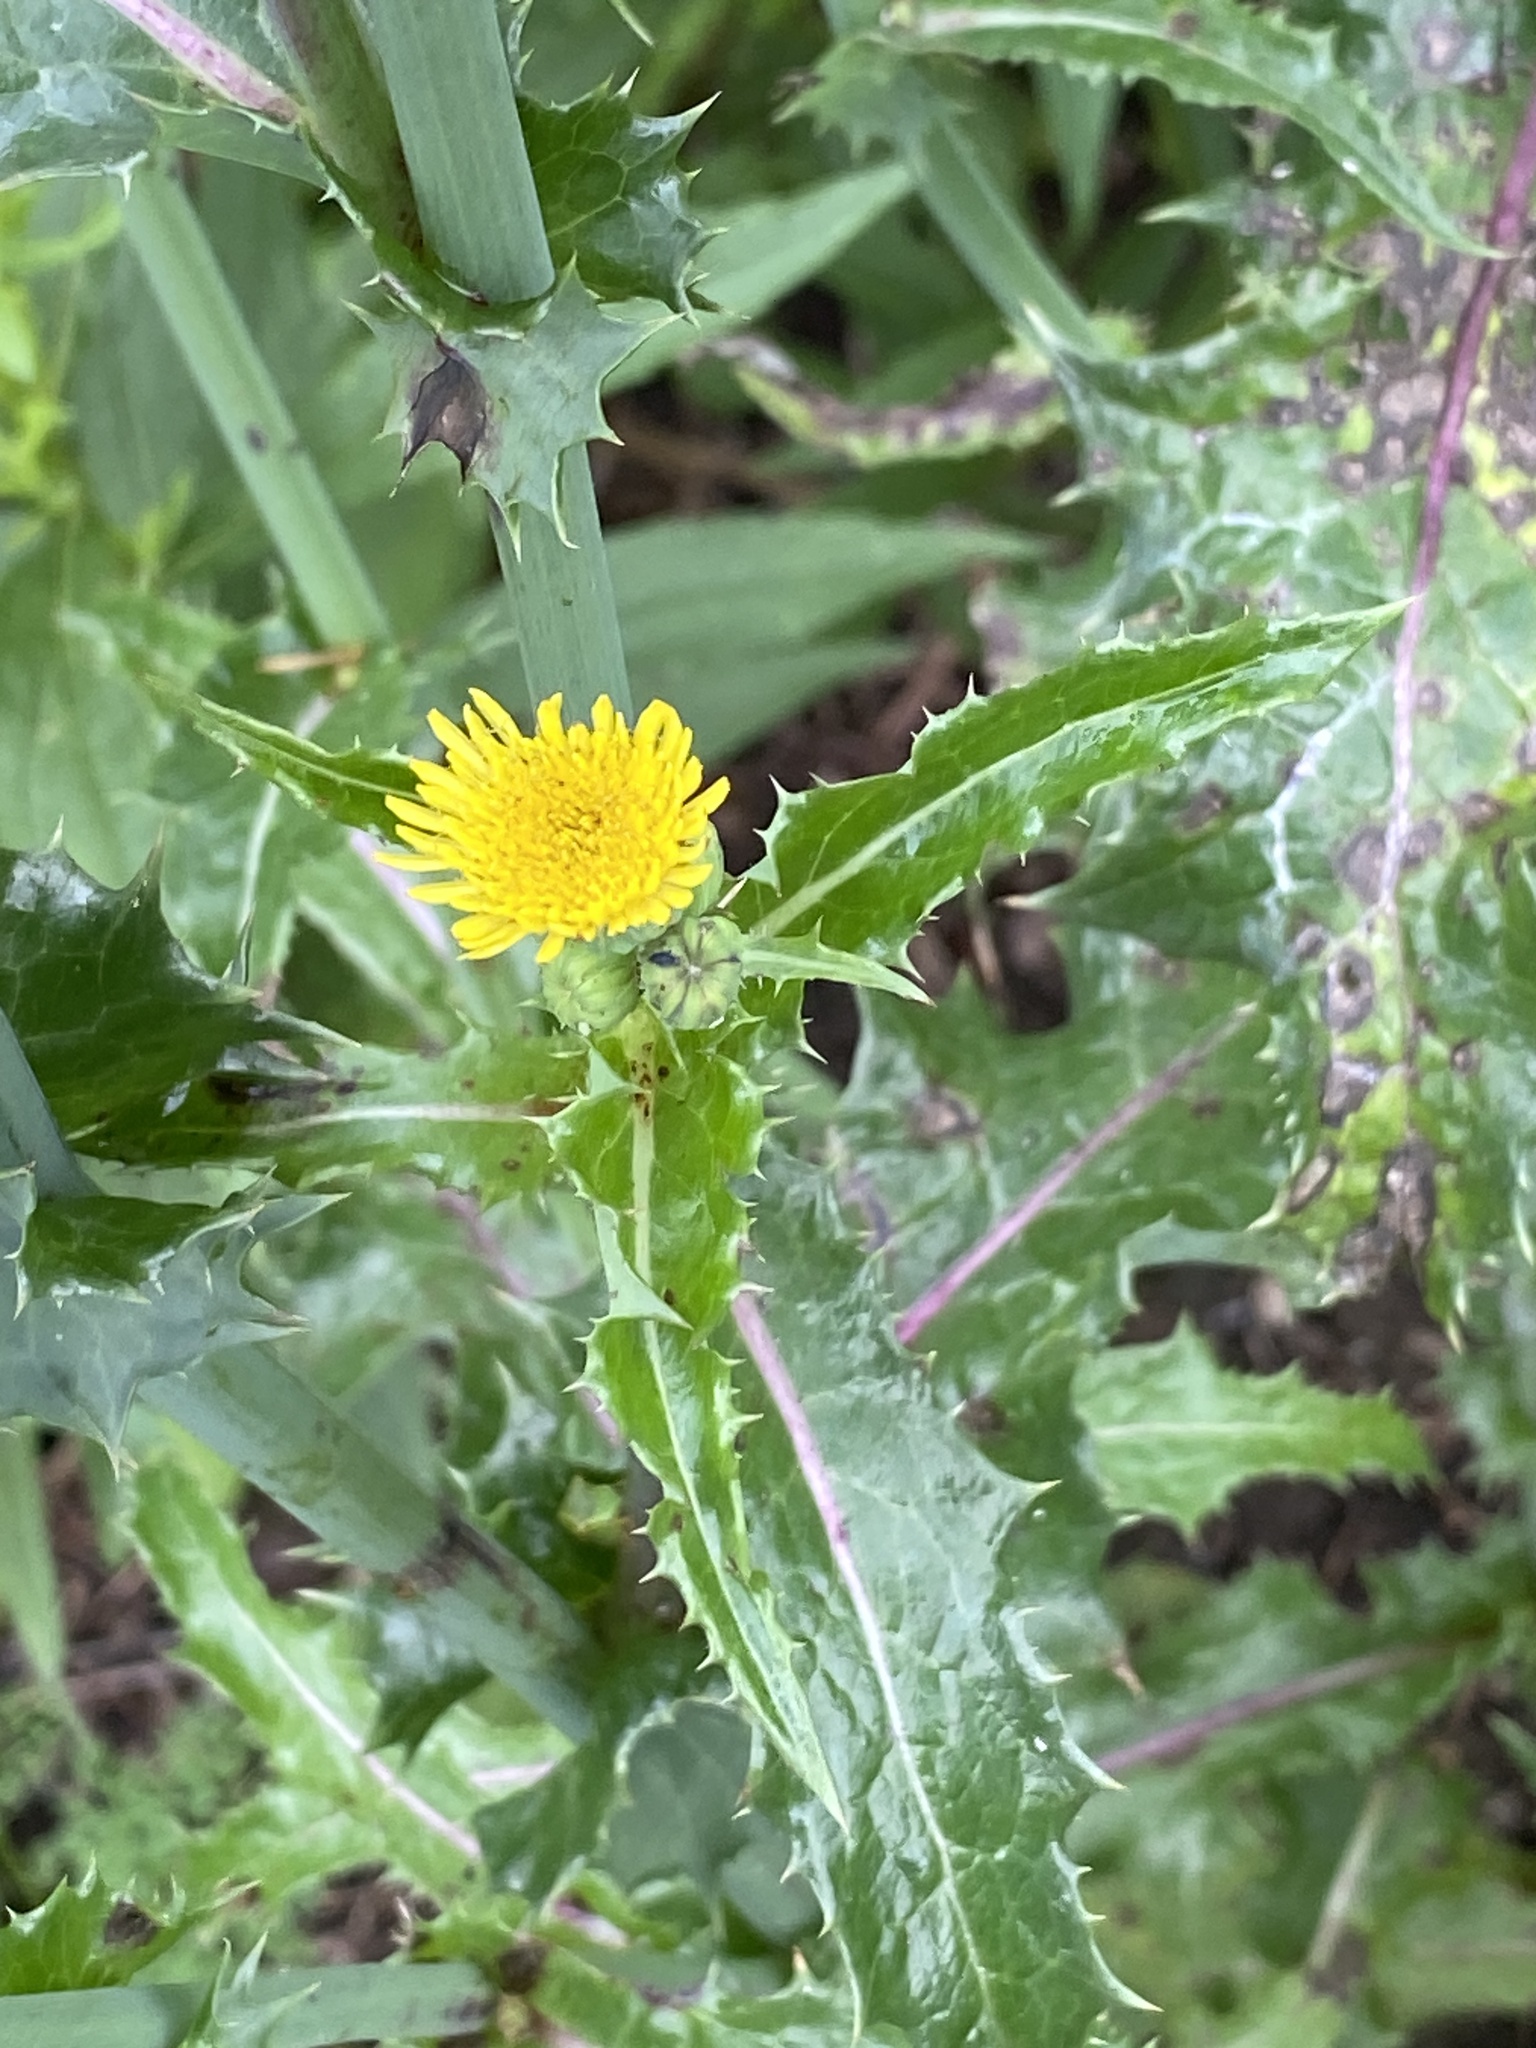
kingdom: Plantae
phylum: Tracheophyta
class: Magnoliopsida
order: Asterales
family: Asteraceae
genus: Sonchus
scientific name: Sonchus asper
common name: Prickly sow-thistle
